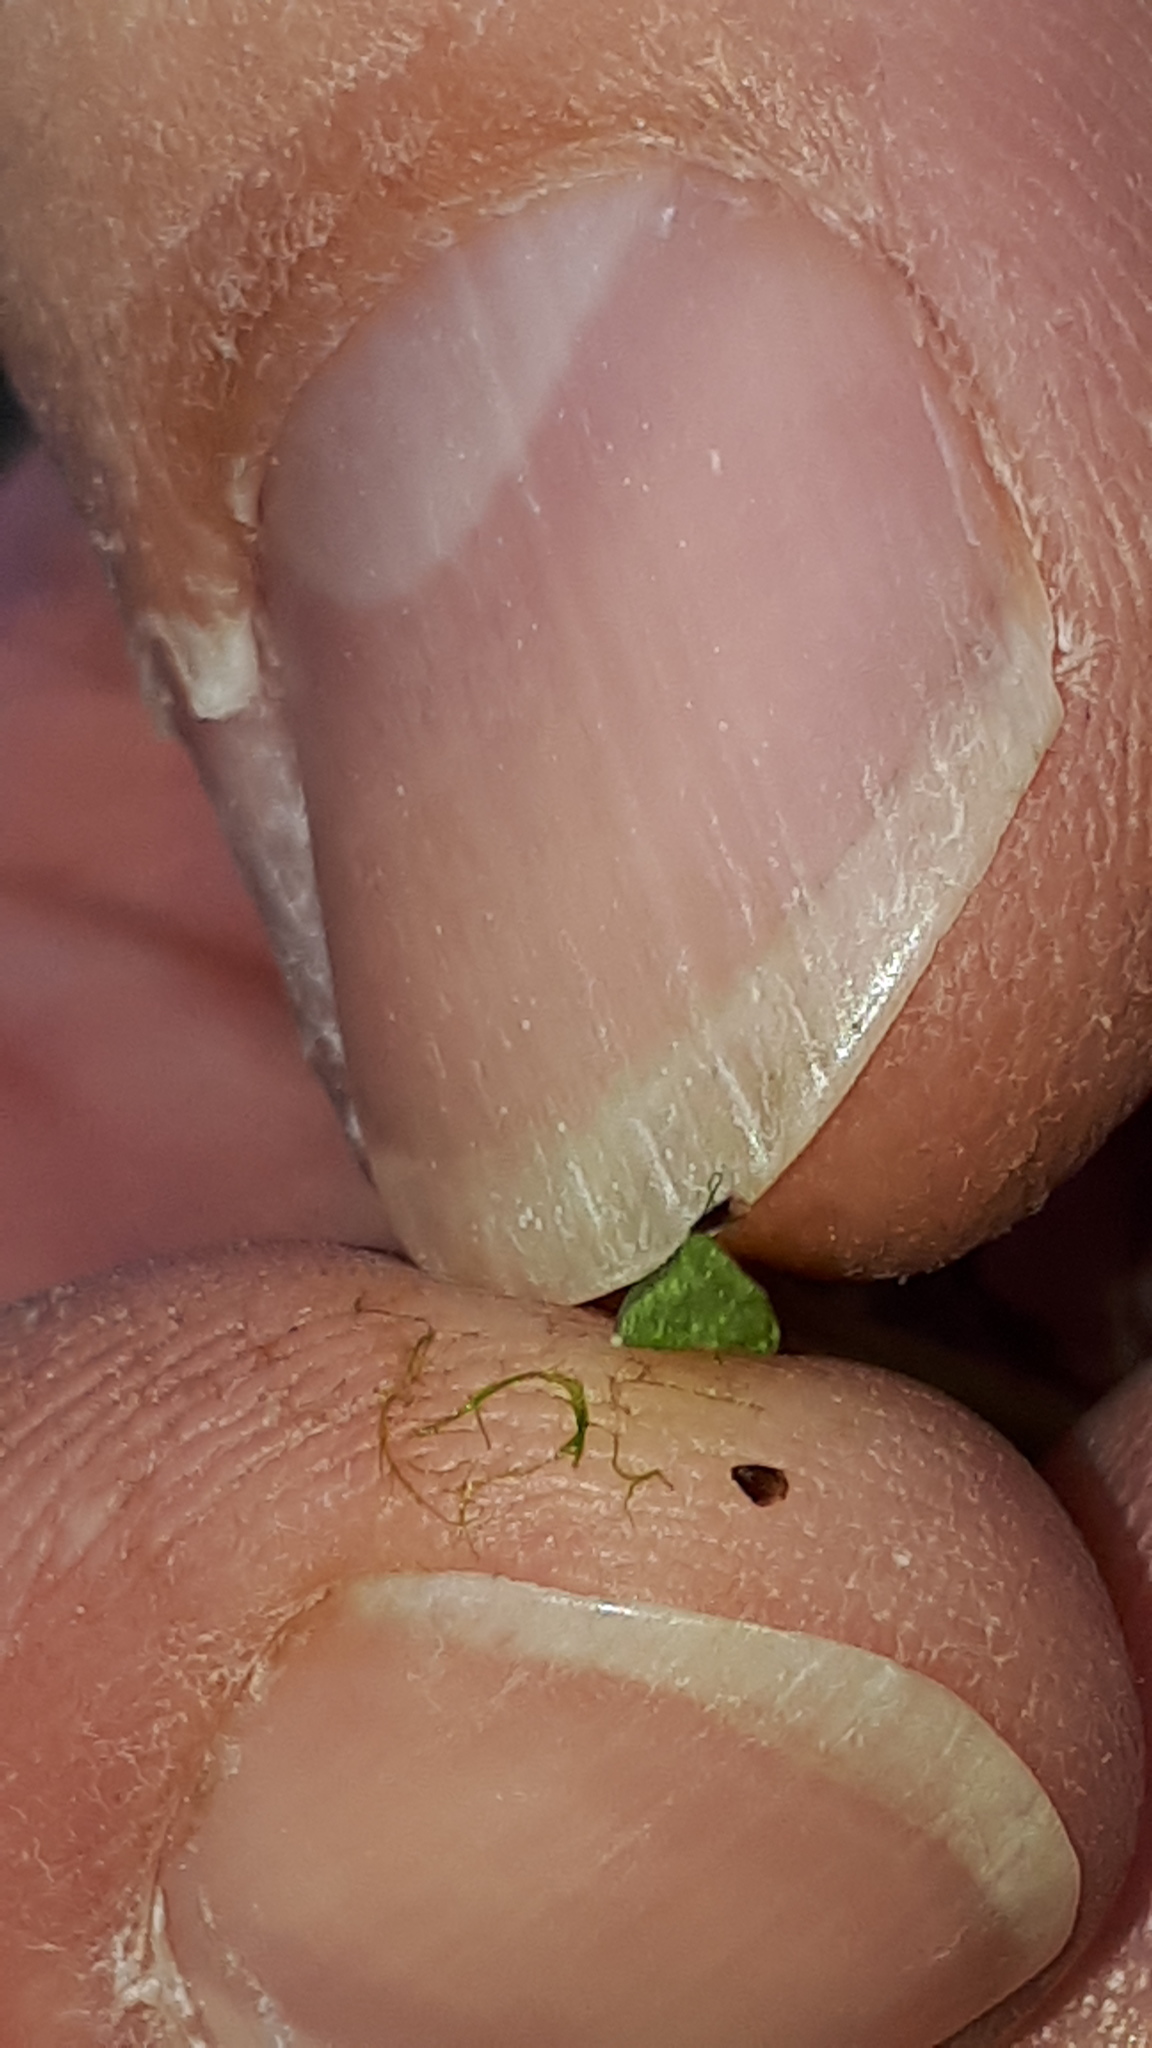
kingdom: Plantae
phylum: Tracheophyta
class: Liliopsida
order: Poales
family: Cyperaceae
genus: Cyperus
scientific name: Cyperus fuscus
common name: Brown galingale
